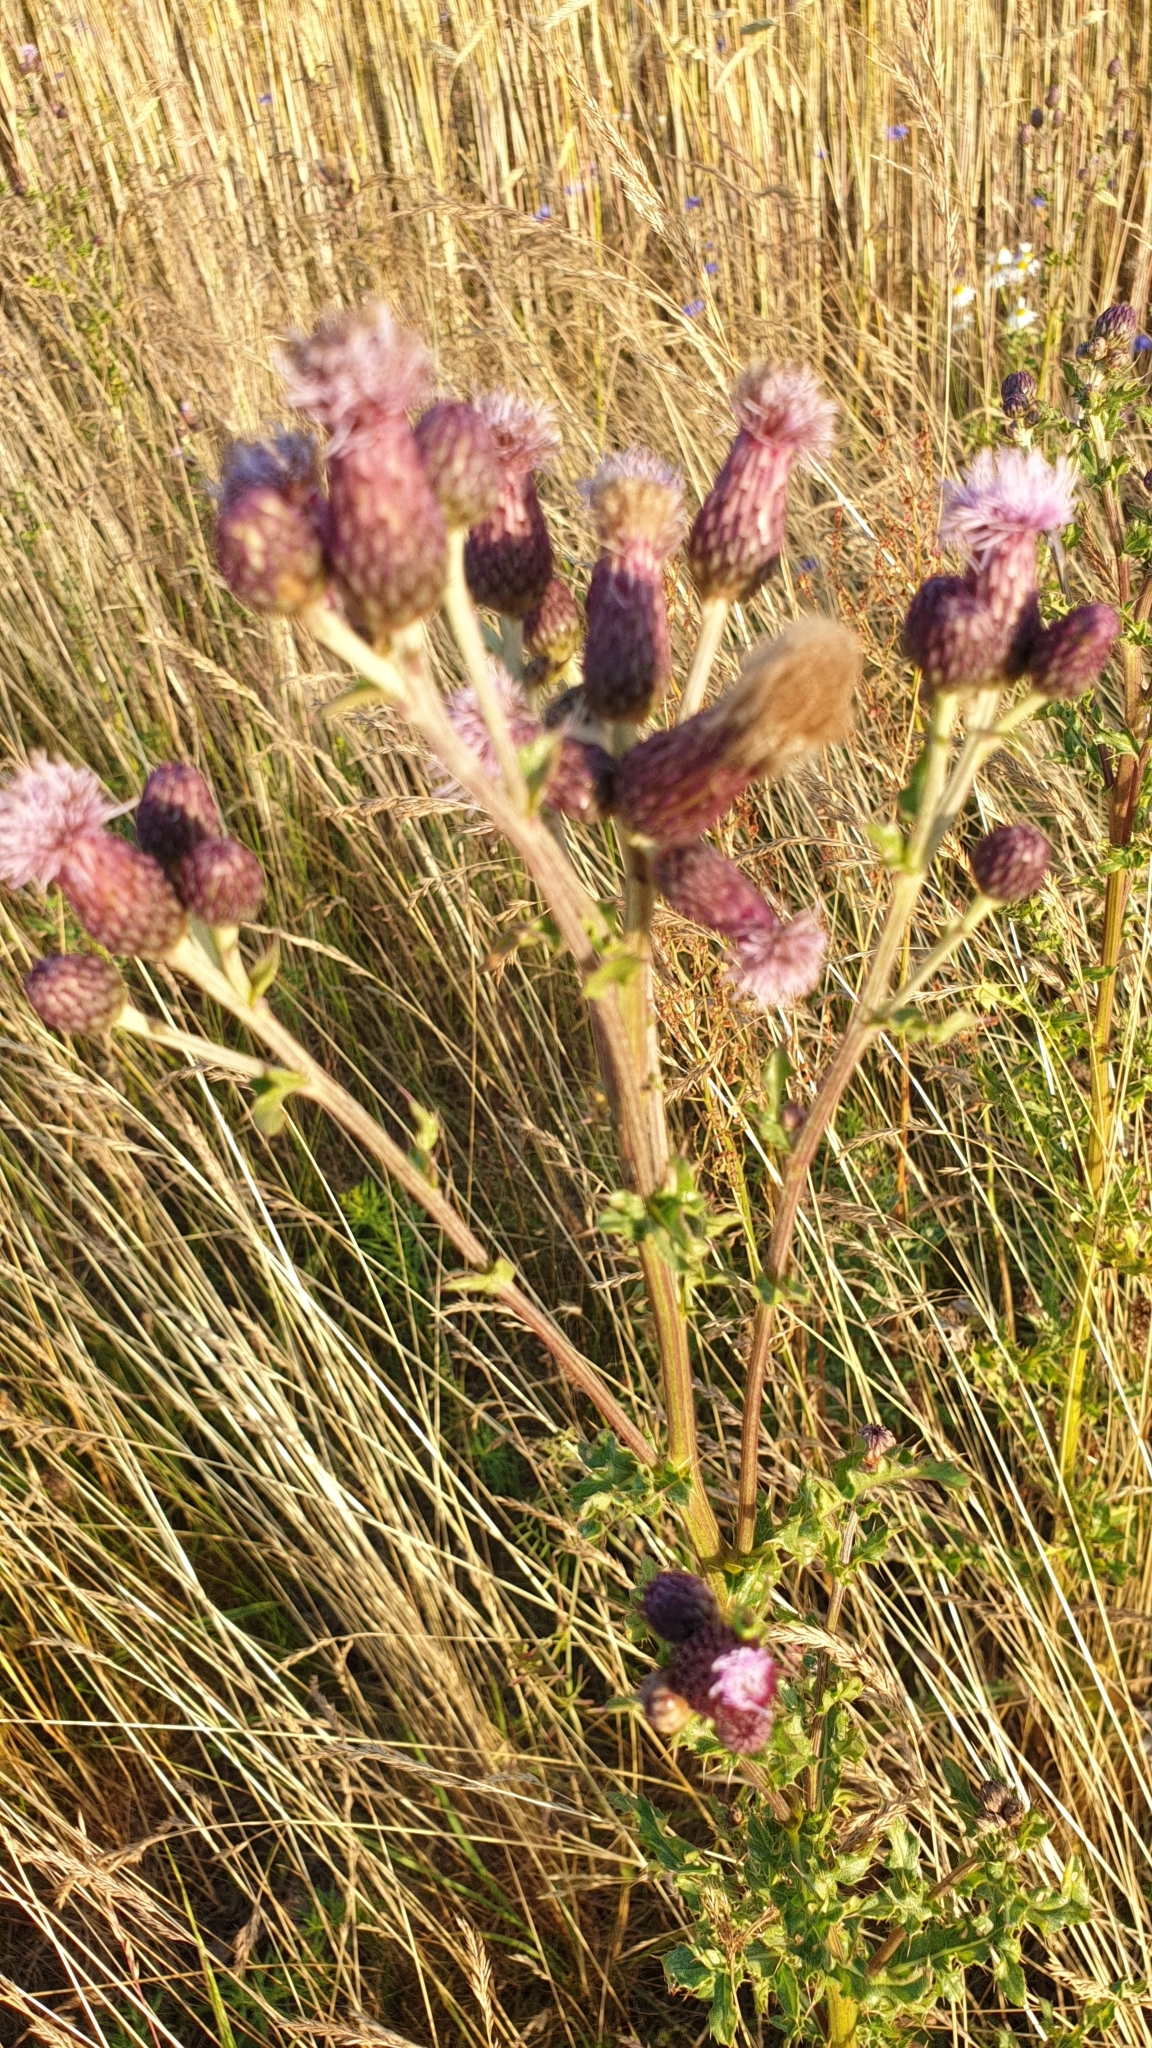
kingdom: Plantae
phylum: Tracheophyta
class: Magnoliopsida
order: Asterales
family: Asteraceae
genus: Cirsium
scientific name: Cirsium arvense
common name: Creeping thistle
